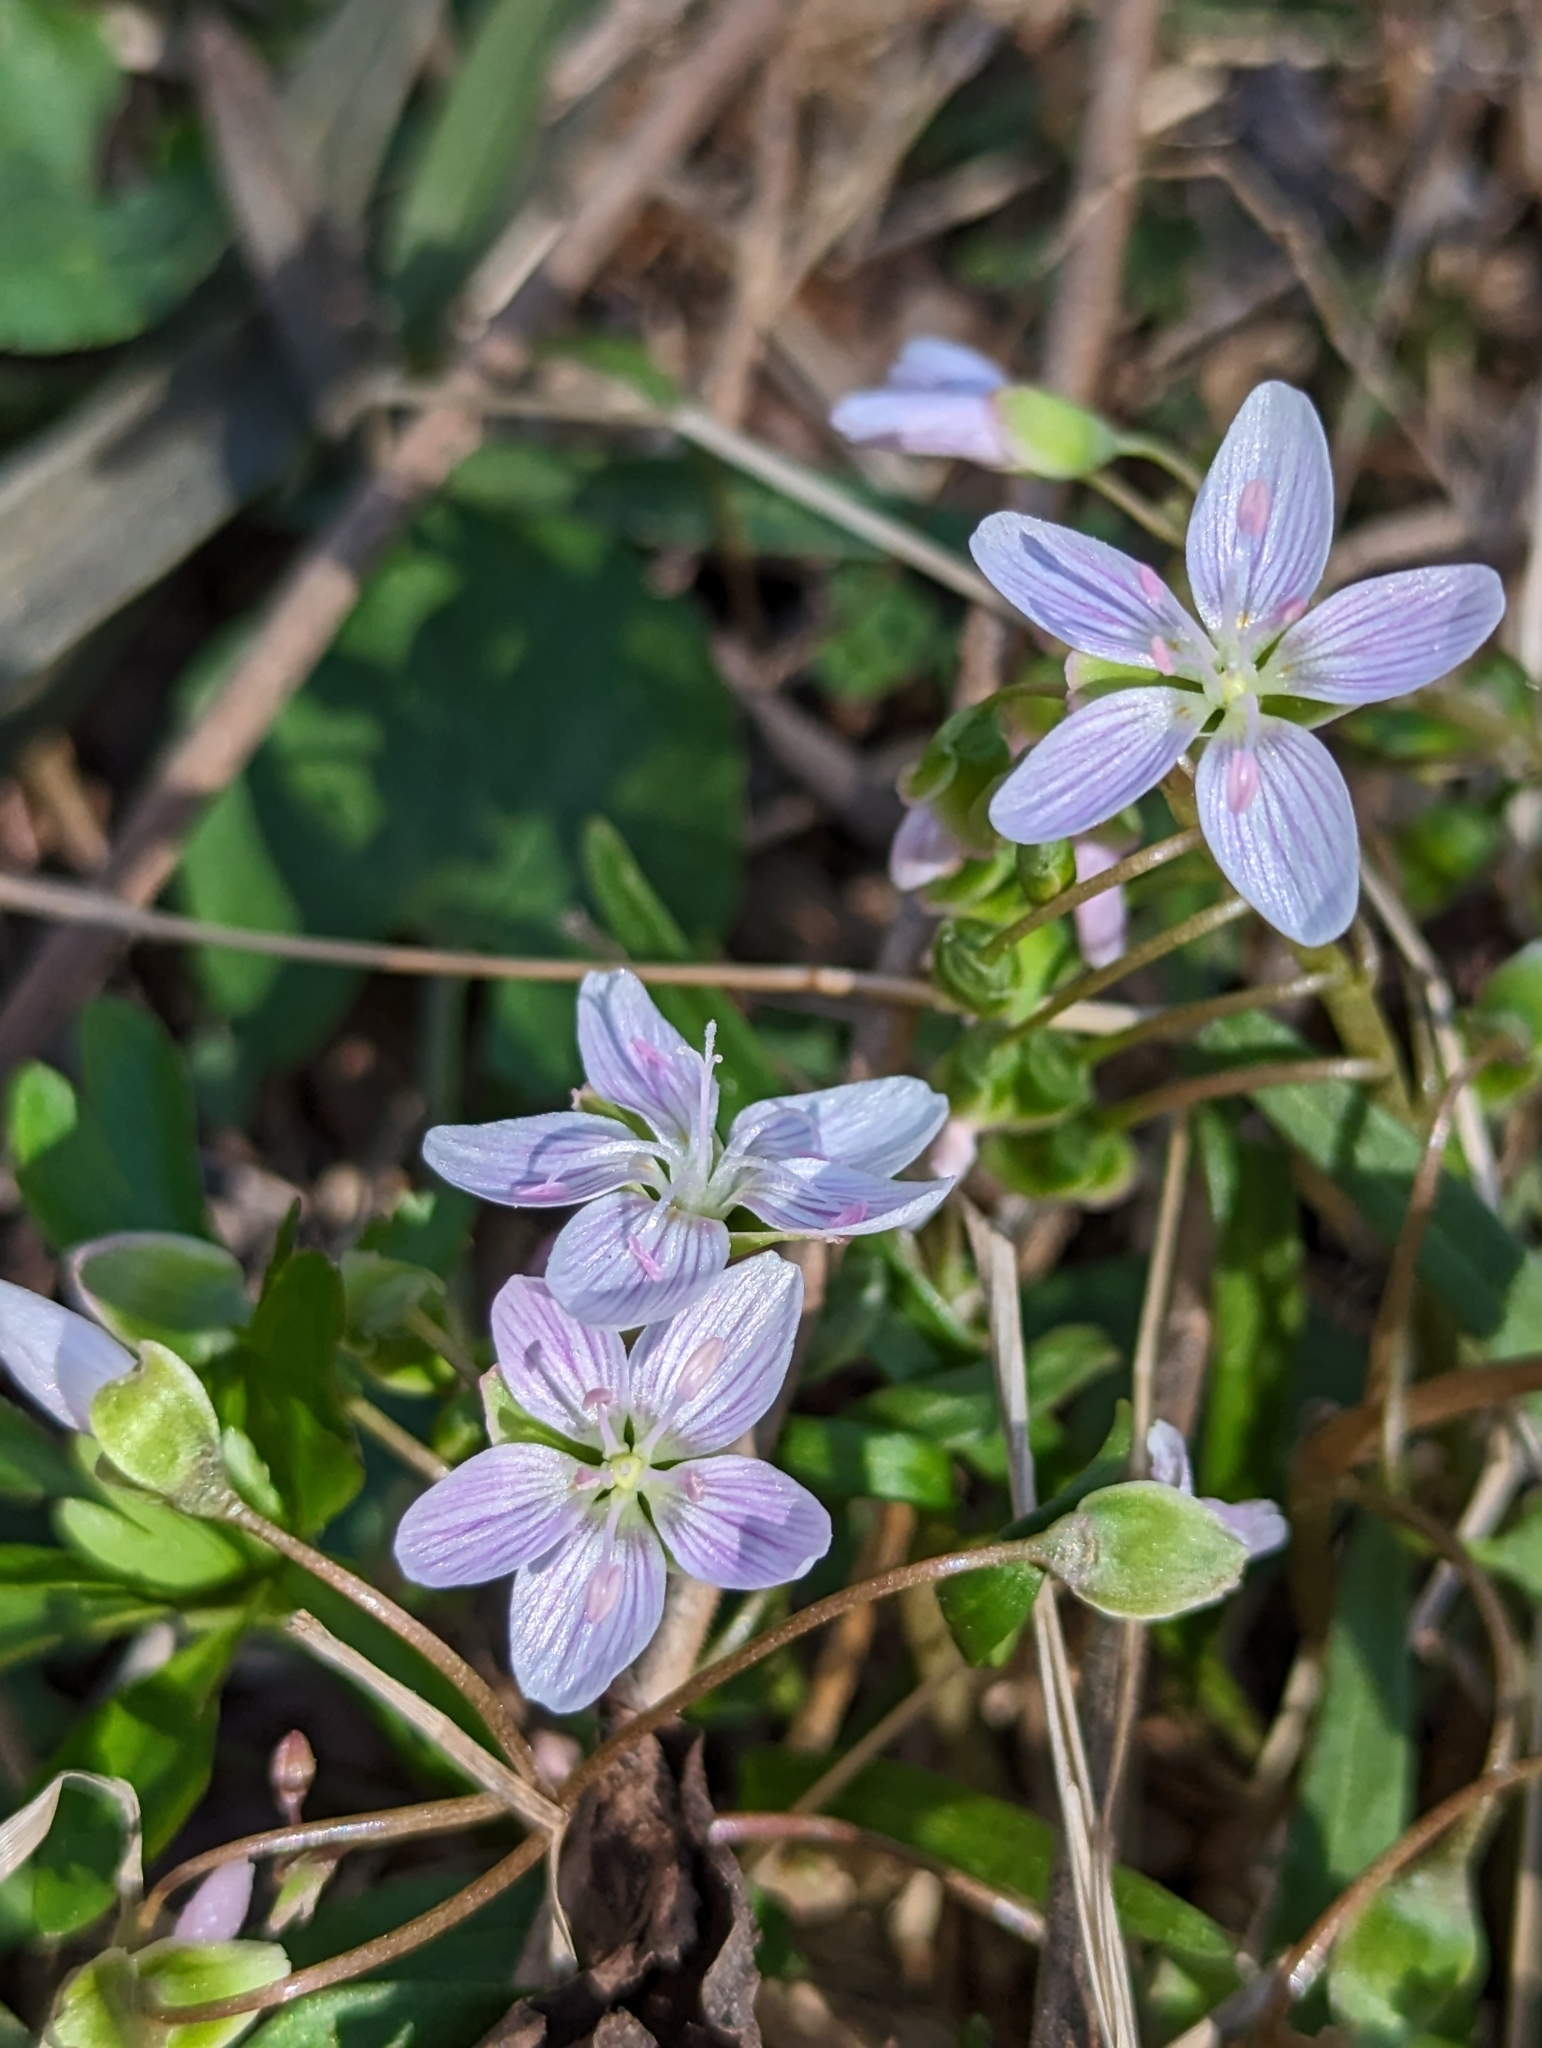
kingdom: Plantae
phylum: Tracheophyta
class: Magnoliopsida
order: Caryophyllales
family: Montiaceae
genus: Claytonia
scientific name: Claytonia virginica
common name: Virginia springbeauty
